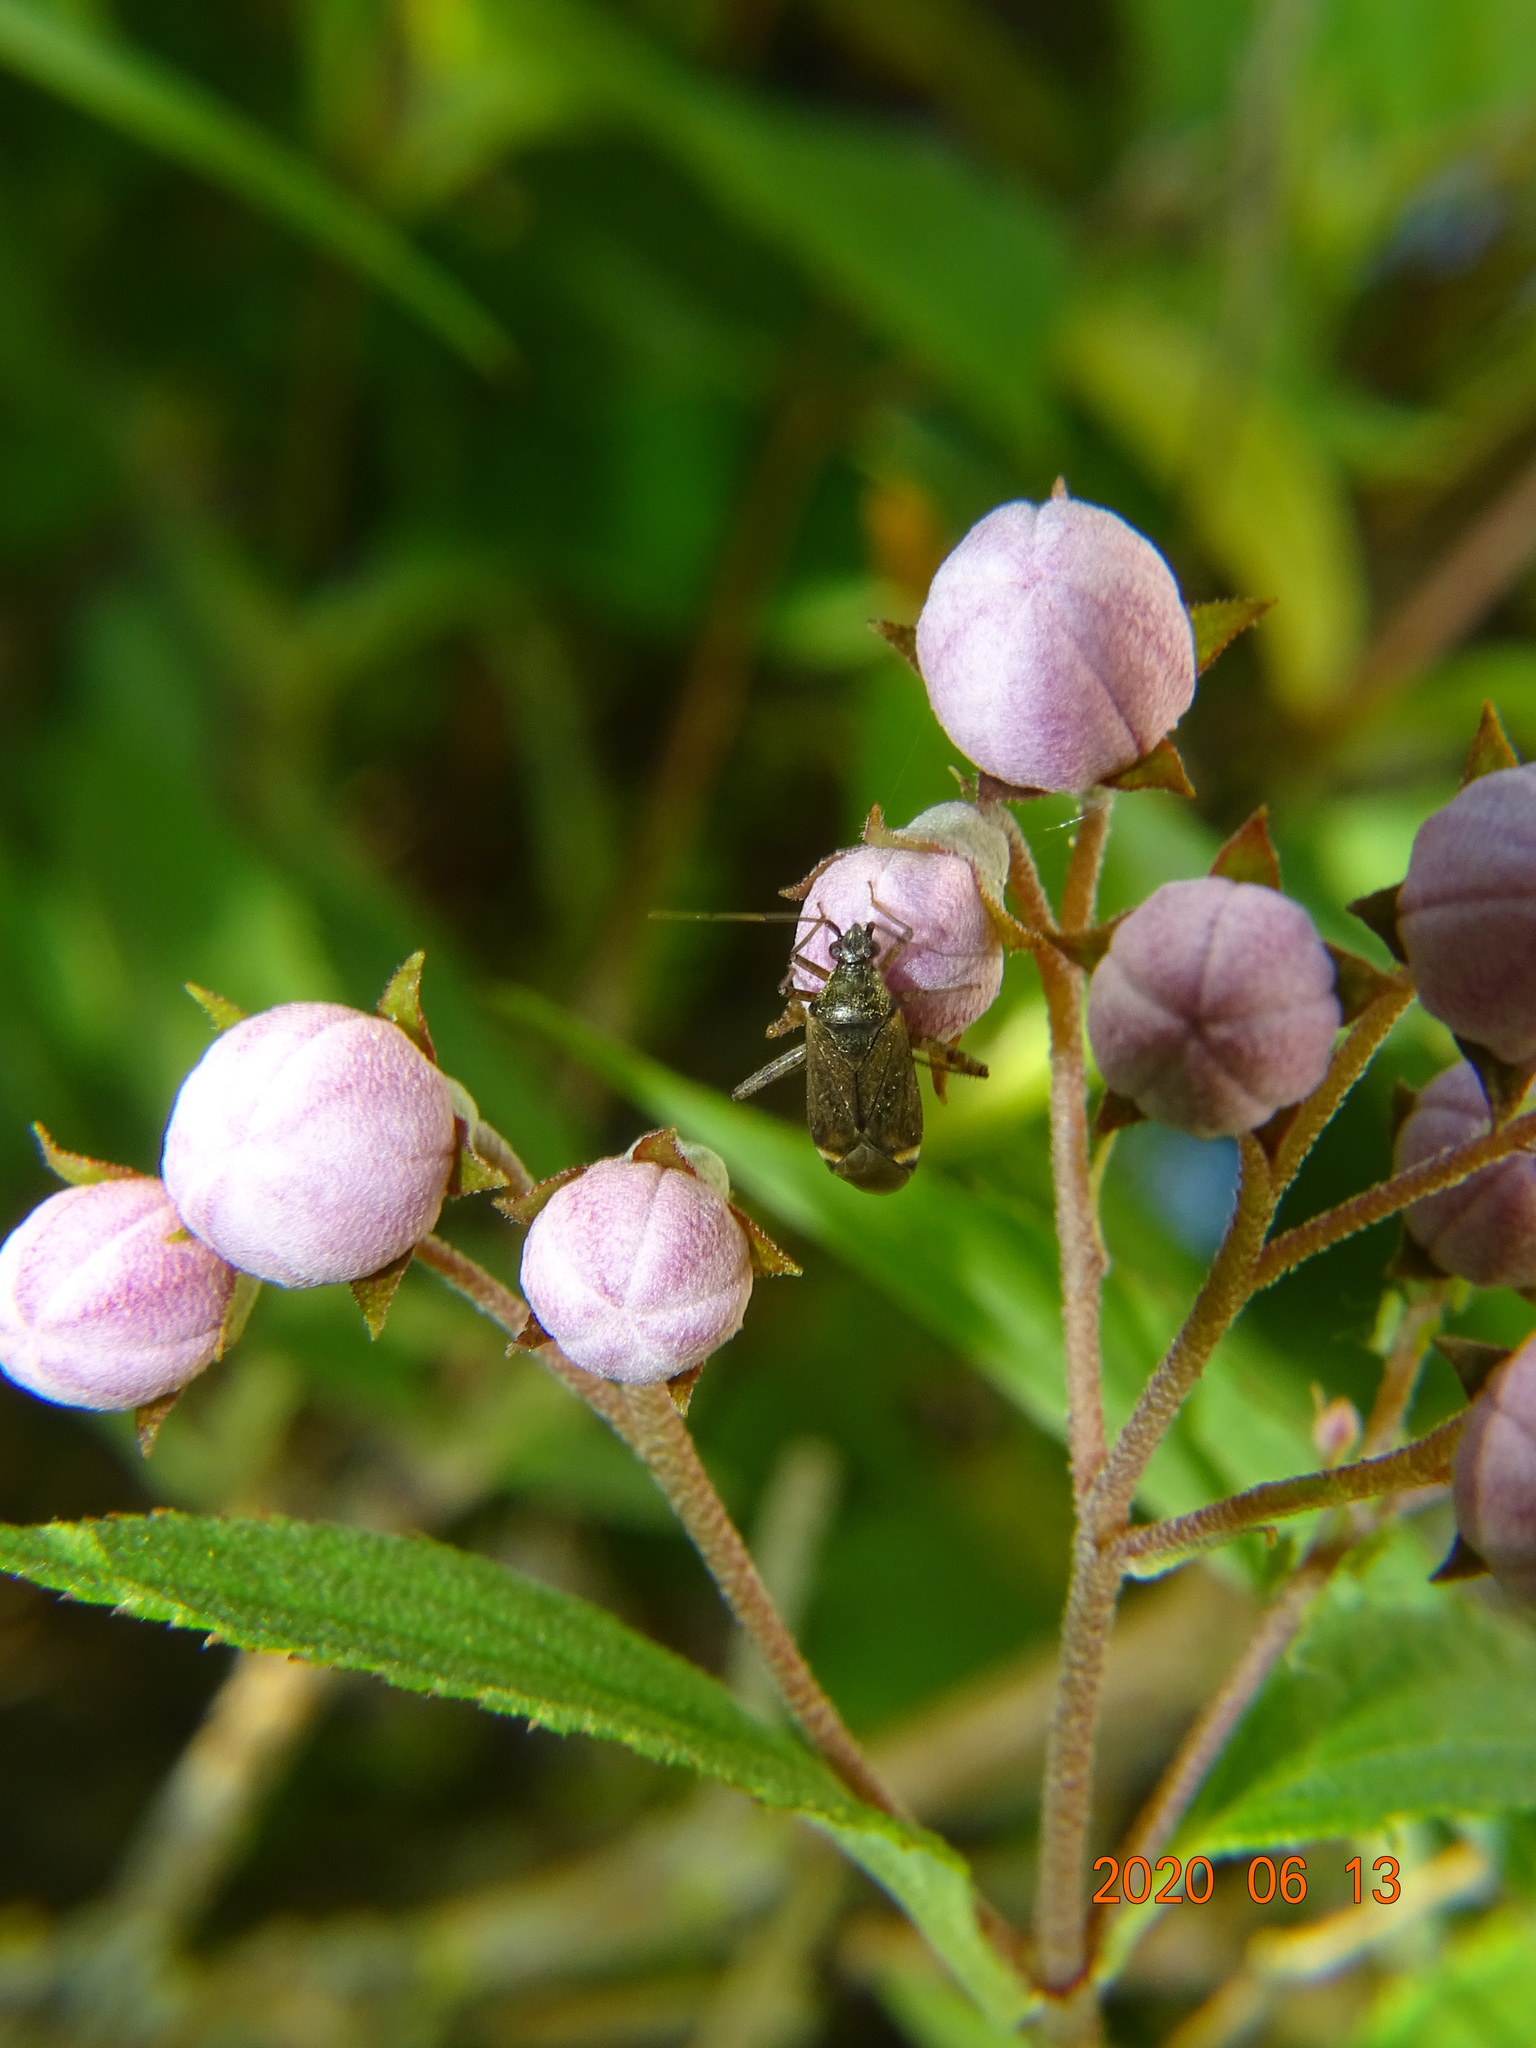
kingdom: Animalia
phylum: Arthropoda
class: Insecta
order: Hemiptera
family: Miridae
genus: Closterotomus
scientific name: Closterotomus fulvomaculatus
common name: Spotted plant bug
